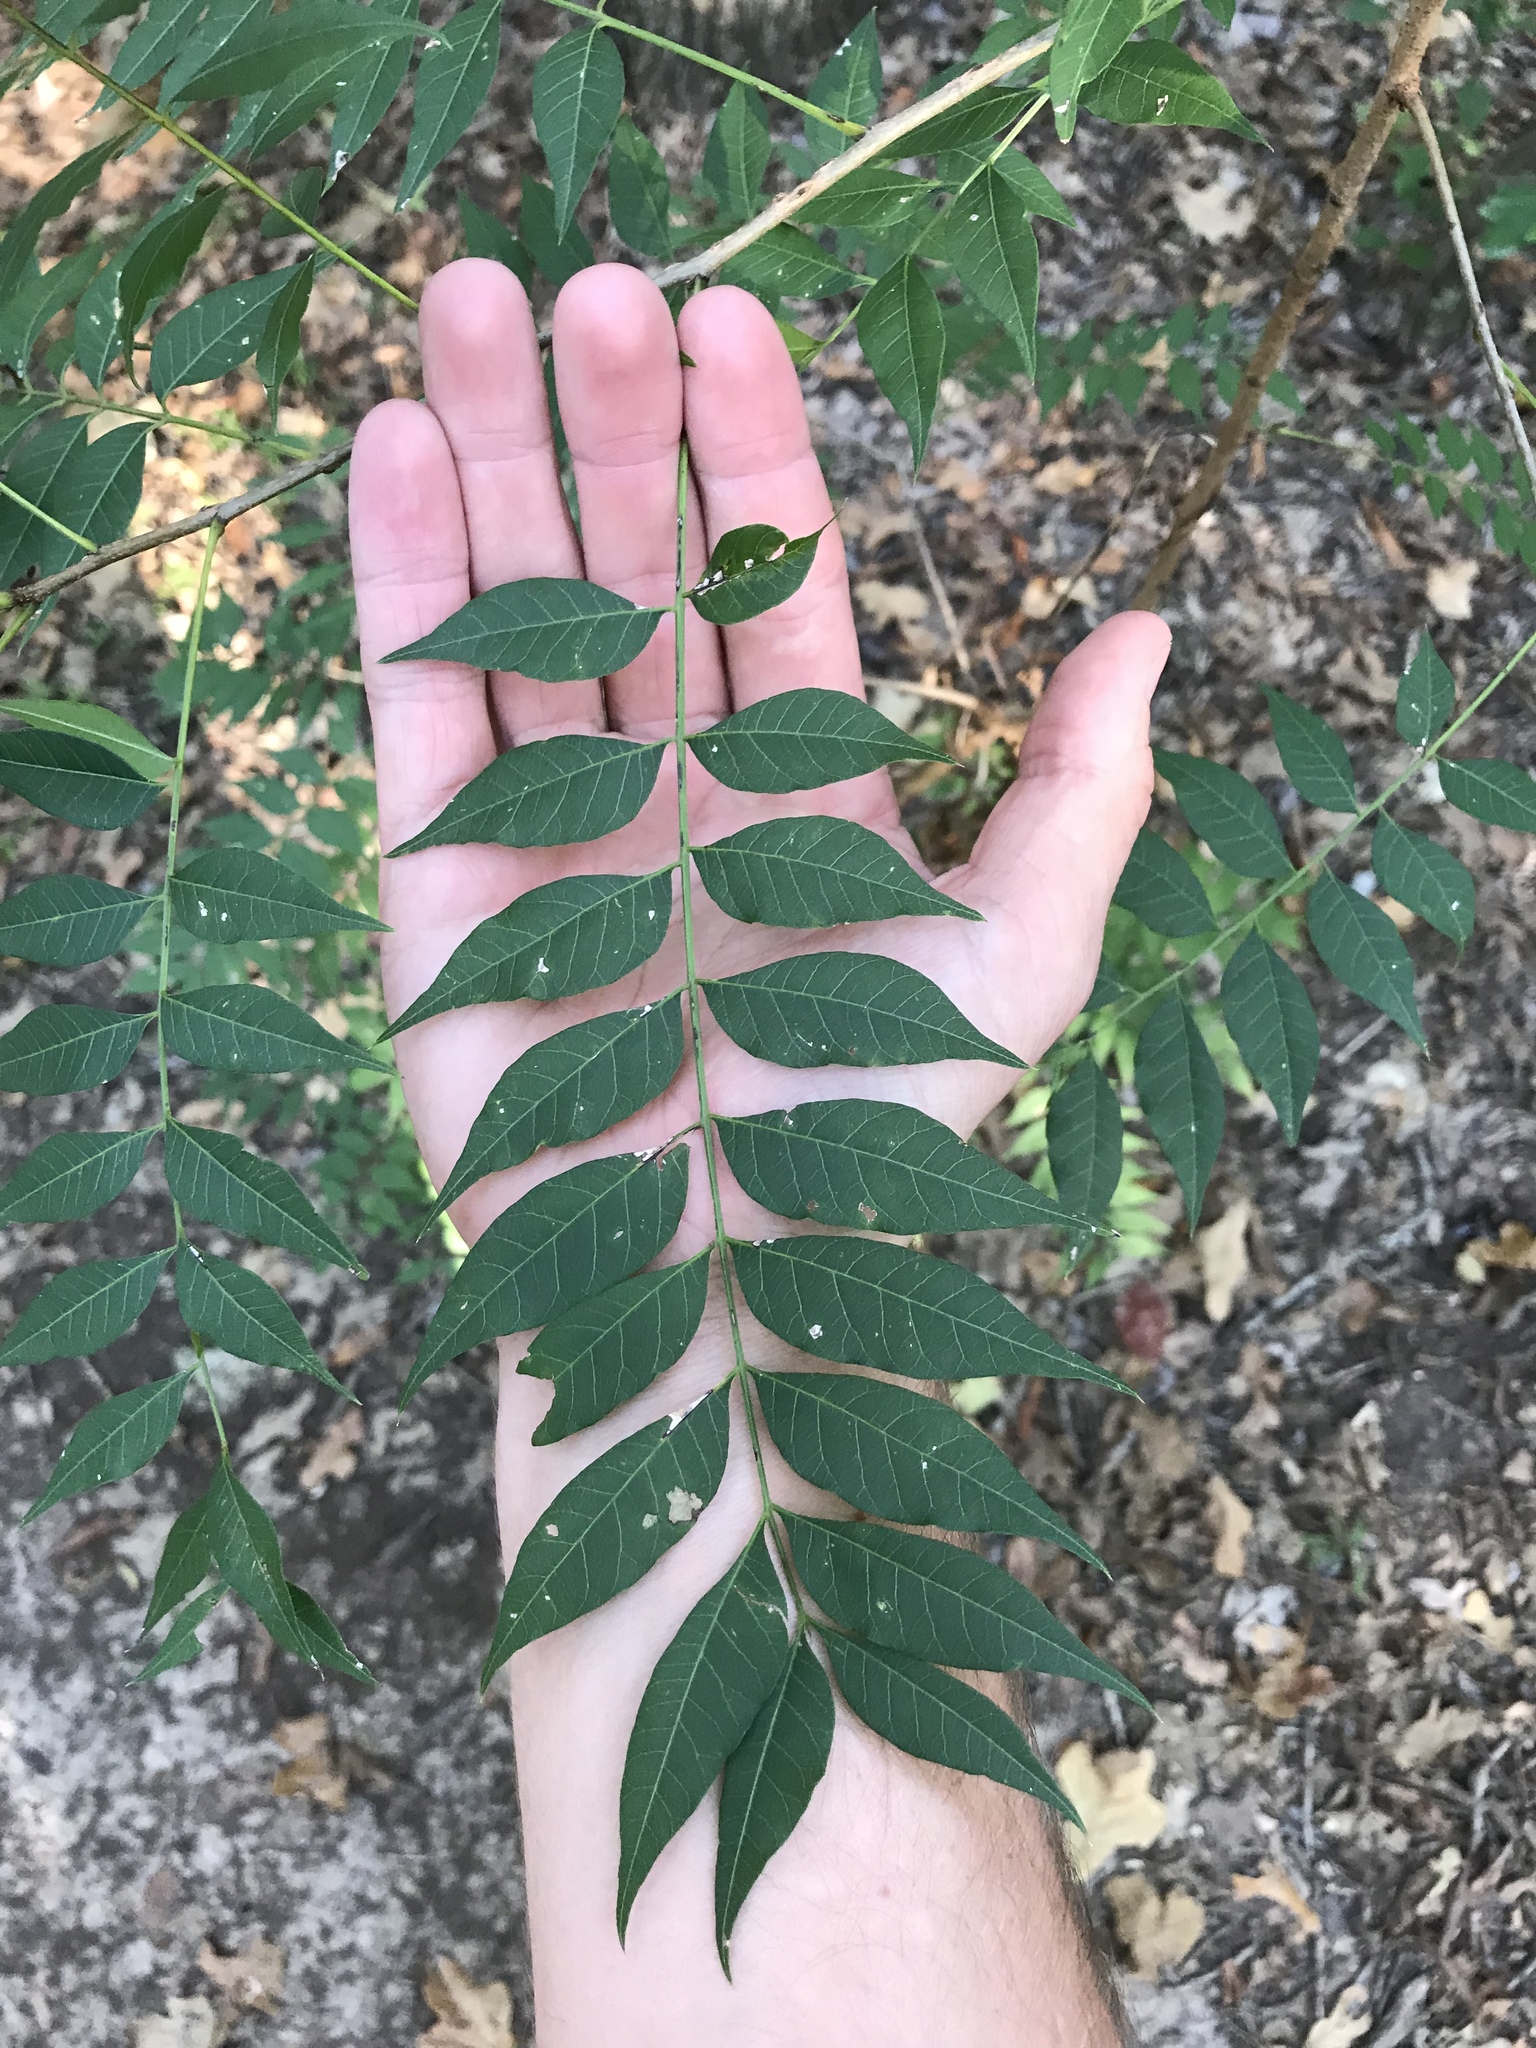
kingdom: Plantae
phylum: Tracheophyta
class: Magnoliopsida
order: Sapindales
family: Anacardiaceae
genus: Pistacia
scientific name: Pistacia chinensis
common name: Chinese pistache
